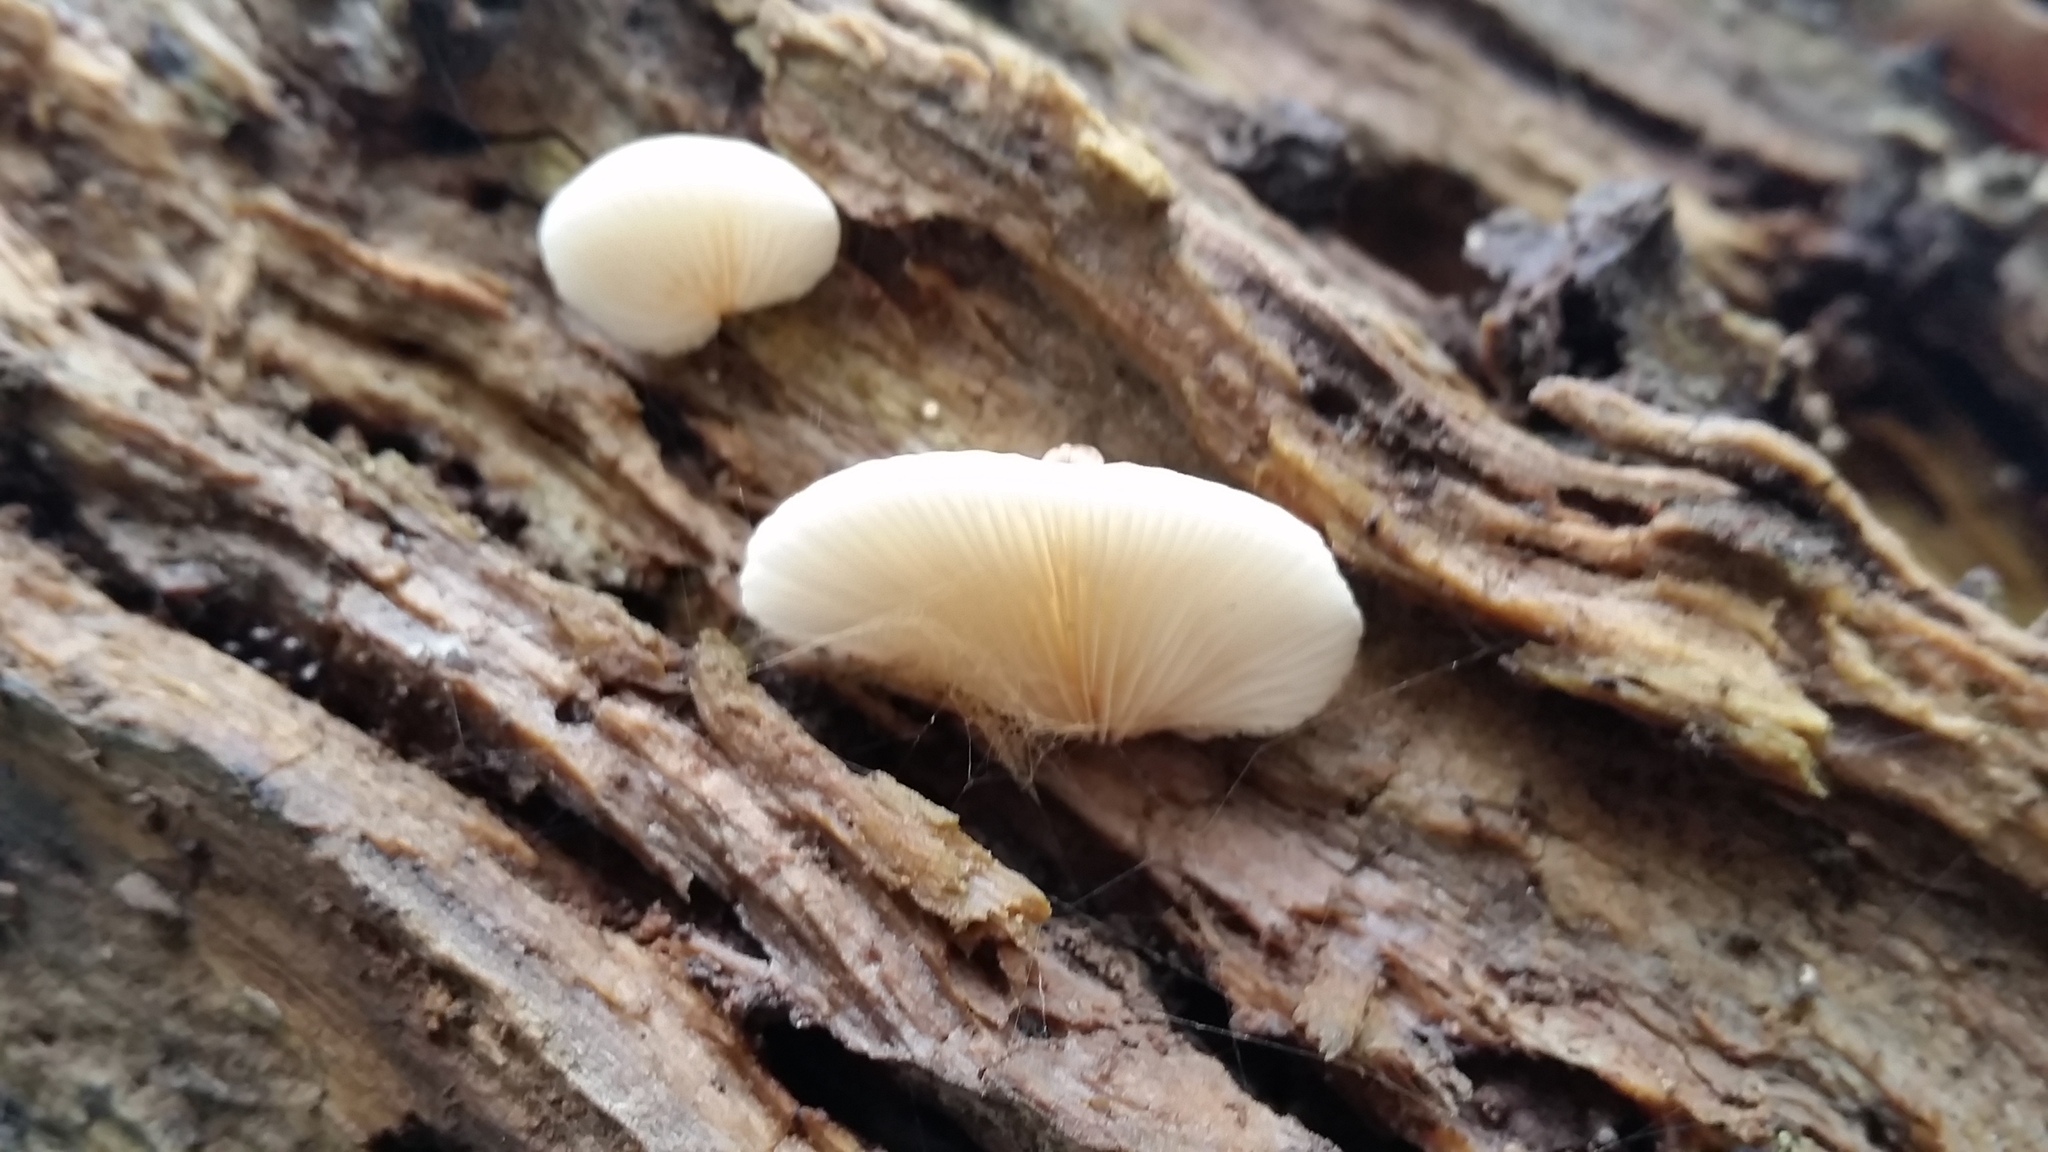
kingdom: Fungi
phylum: Basidiomycota
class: Agaricomycetes
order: Agaricales
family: Crepidotaceae
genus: Crepidotus
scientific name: Crepidotus mollis
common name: Peeling oysterling
